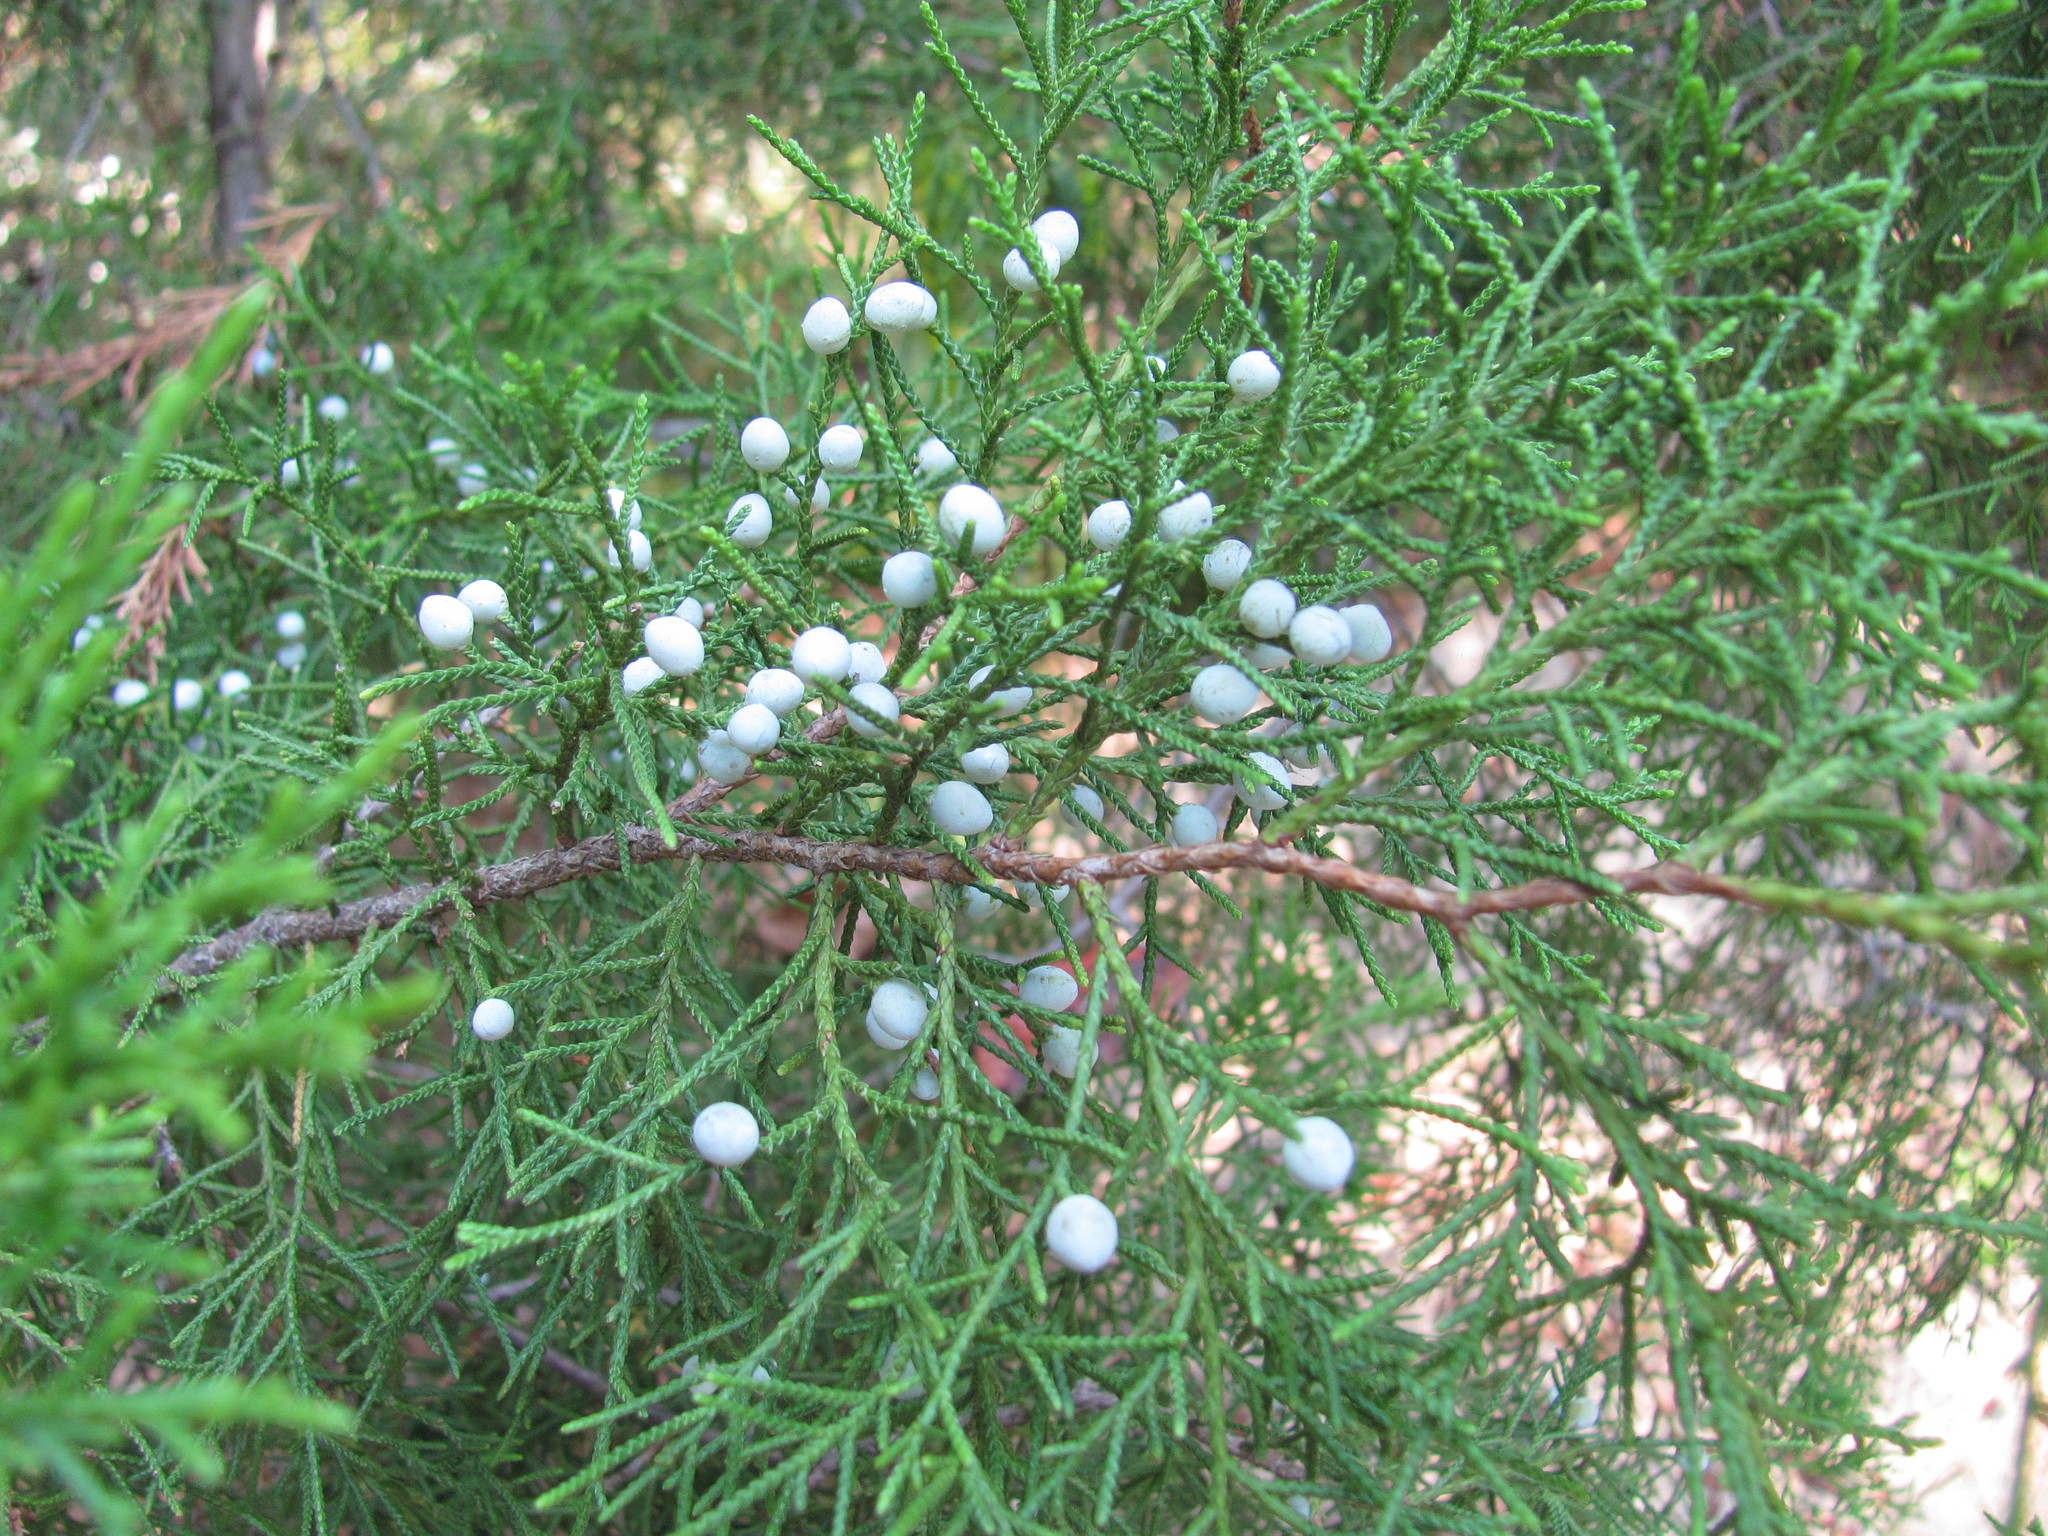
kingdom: Plantae
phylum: Tracheophyta
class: Pinopsida
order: Pinales
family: Cupressaceae
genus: Juniperus
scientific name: Juniperus virginiana
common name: Red juniper
